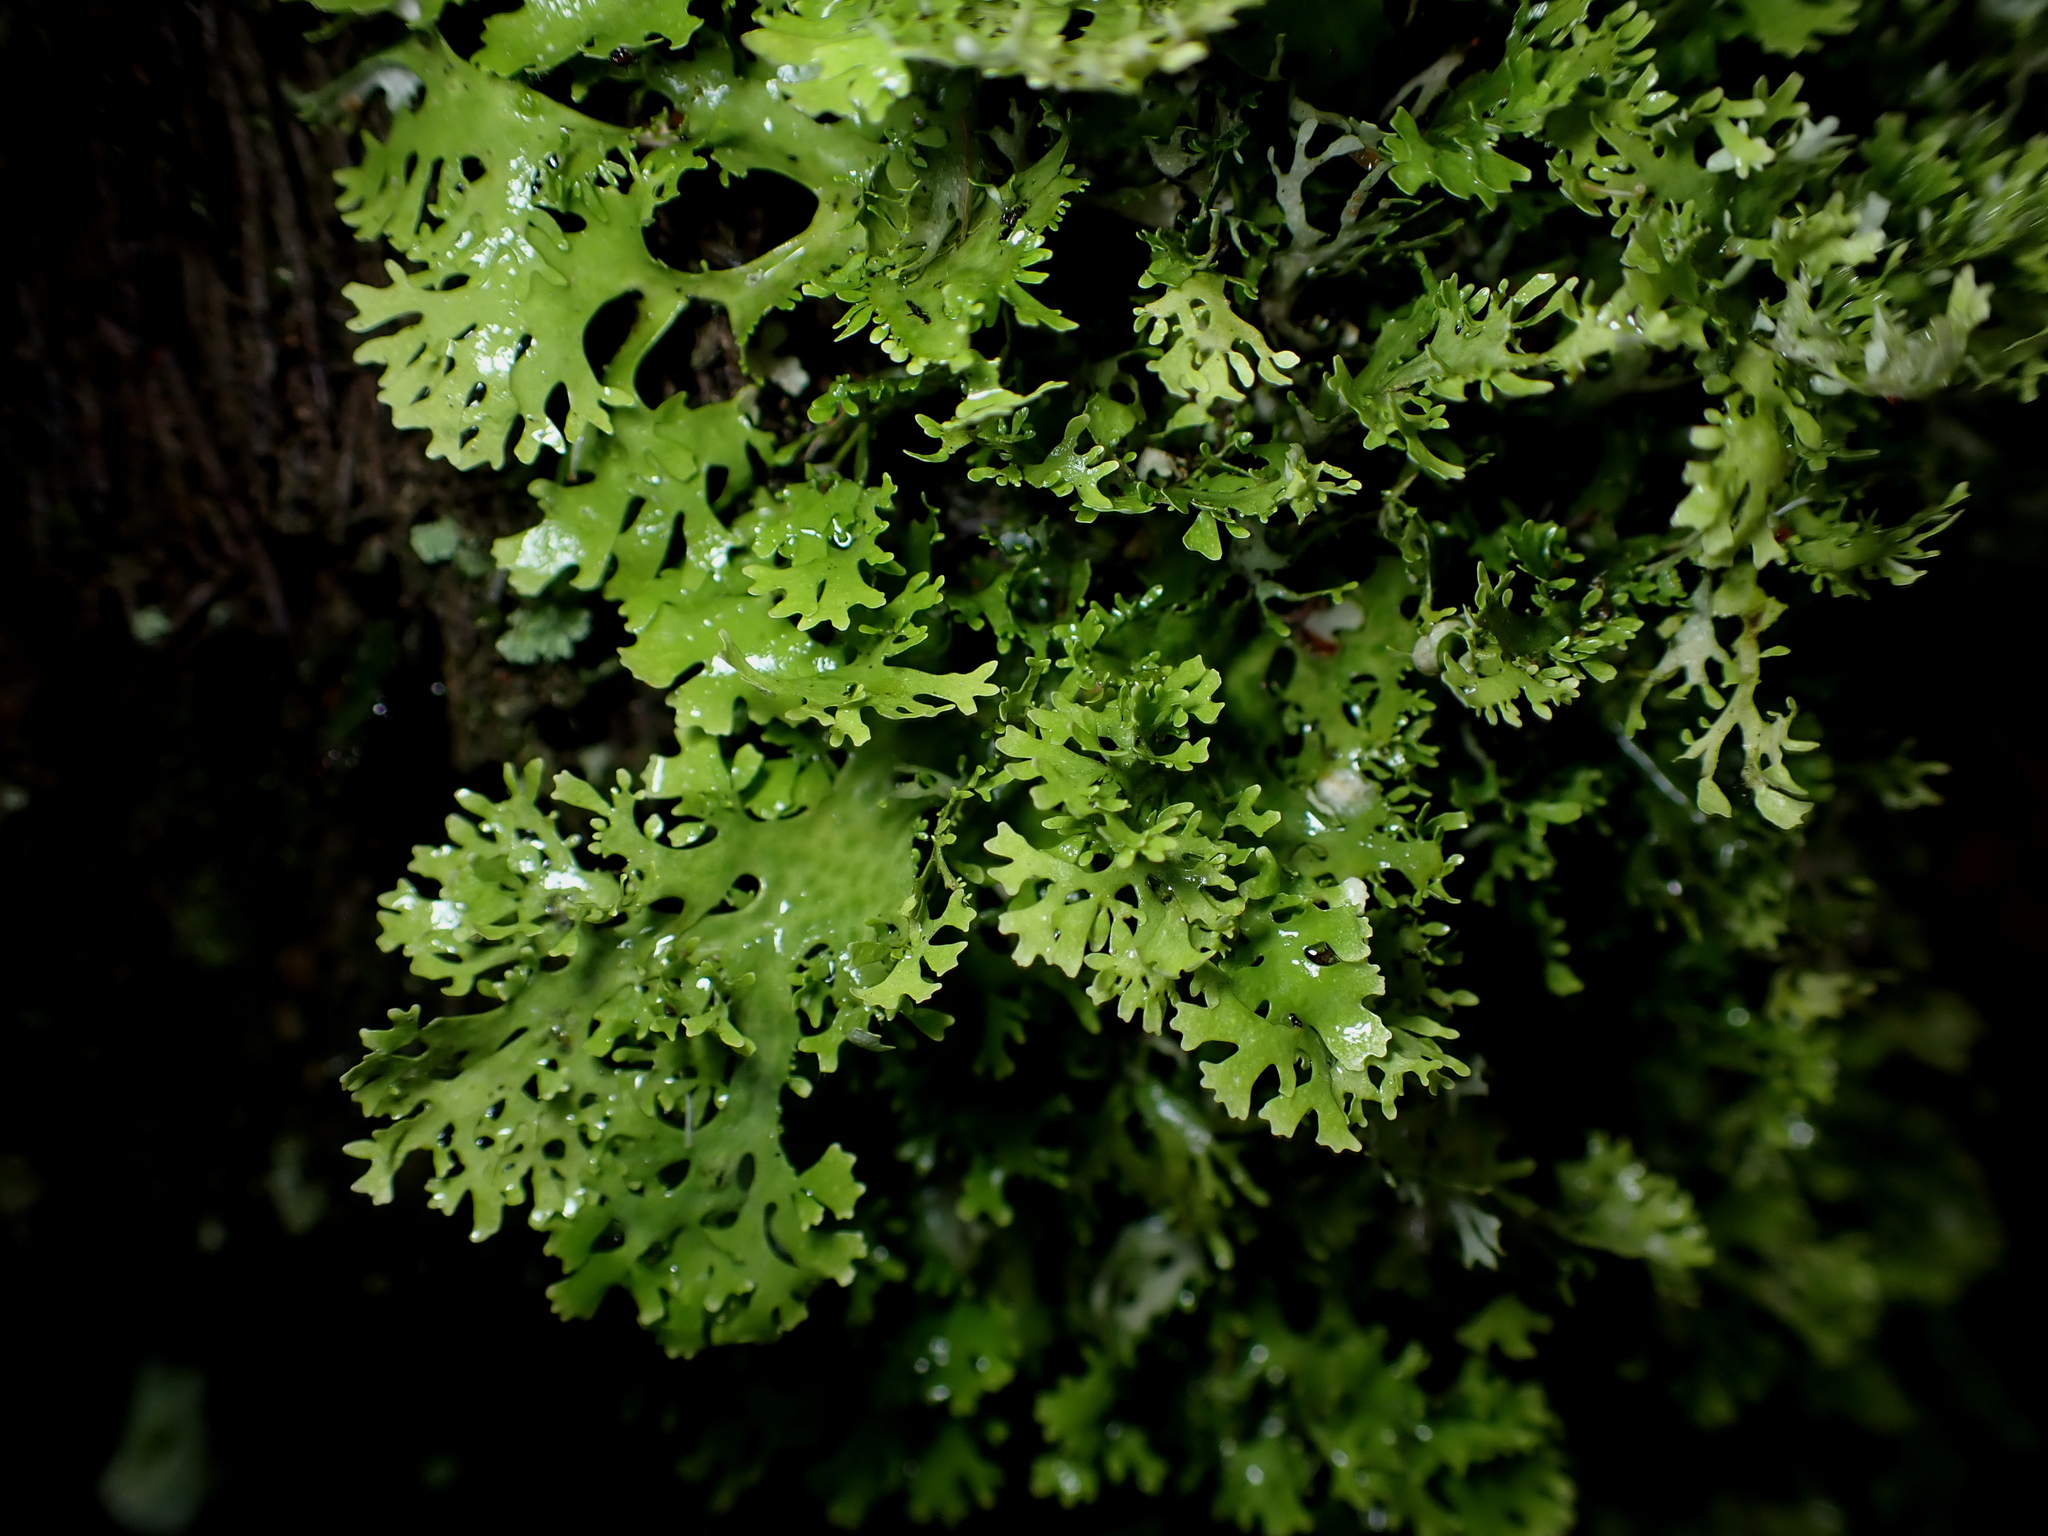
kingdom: Fungi
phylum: Ascomycota
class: Lecanoromycetes
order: Peltigerales
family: Lobariaceae
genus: Sticta
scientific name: Sticta filix
